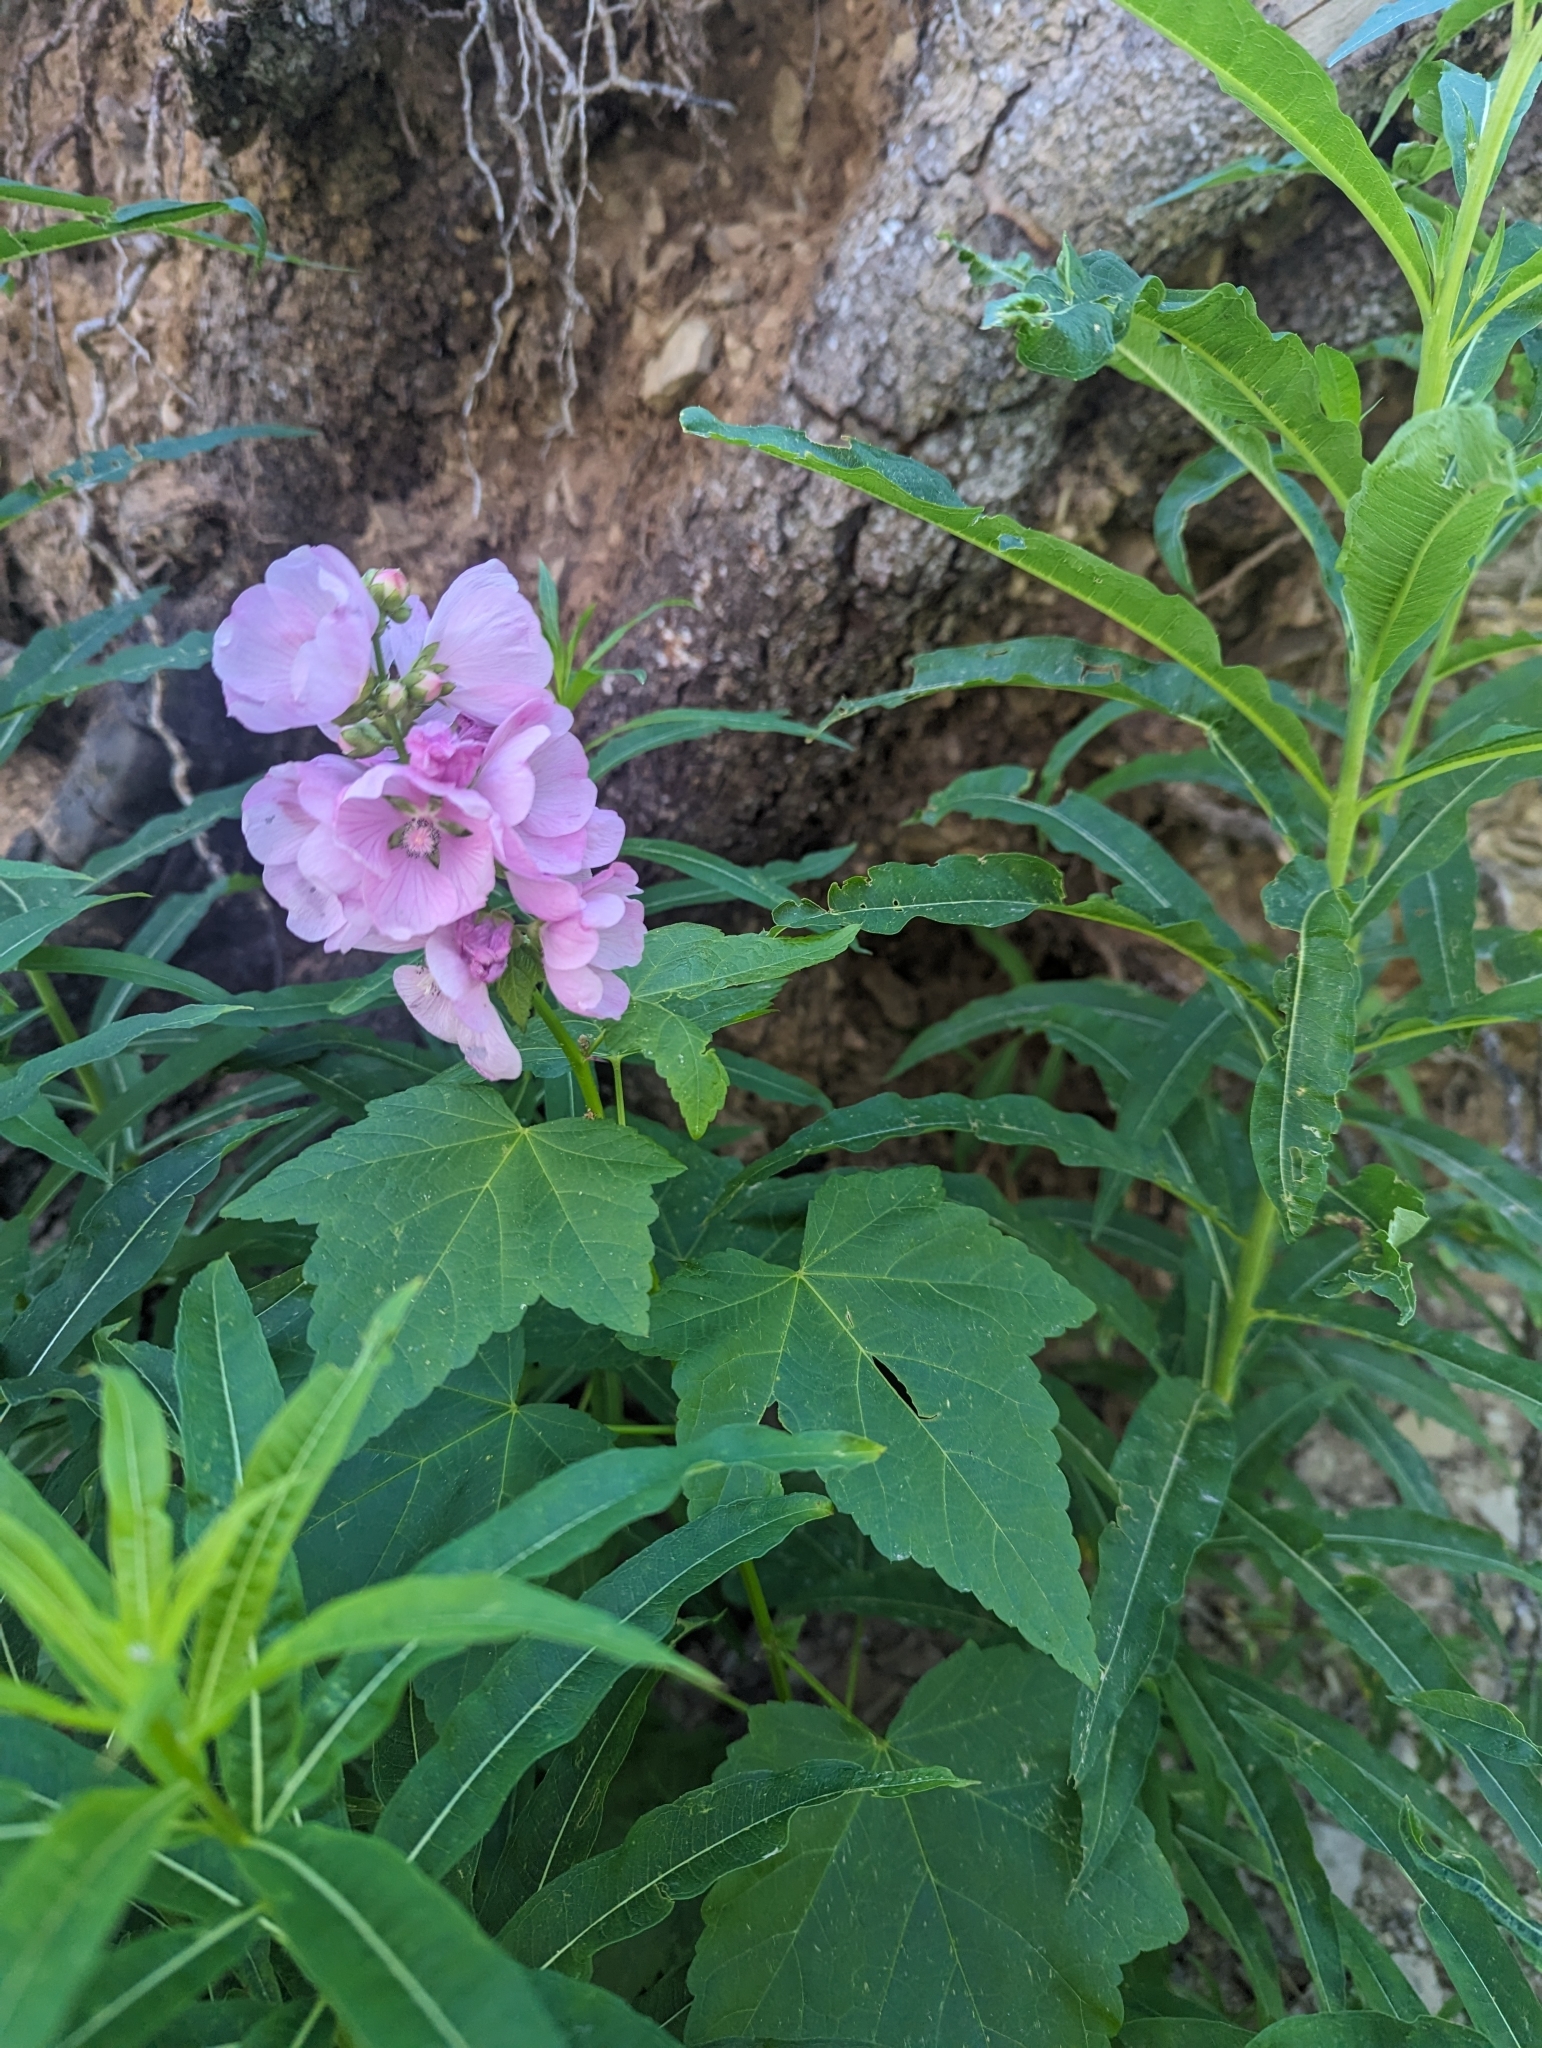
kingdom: Plantae
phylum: Tracheophyta
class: Magnoliopsida
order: Malvales
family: Malvaceae
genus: Iliamna
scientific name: Iliamna rivularis
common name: Wild hollyhock
